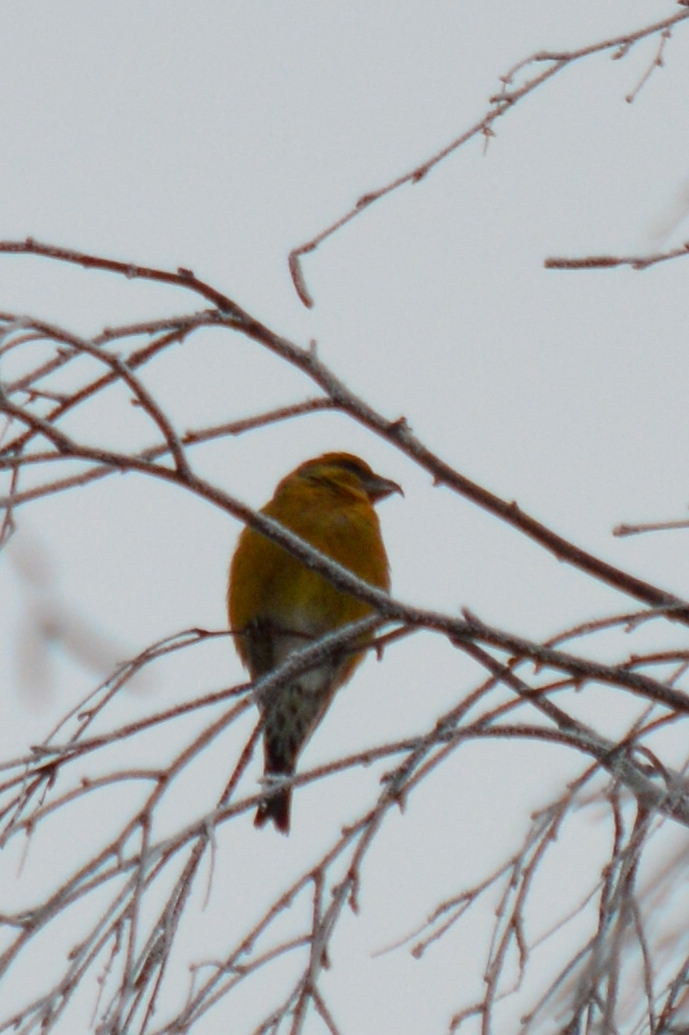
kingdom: Animalia
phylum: Chordata
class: Aves
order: Passeriformes
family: Fringillidae
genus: Loxia
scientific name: Loxia curvirostra
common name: Red crossbill
